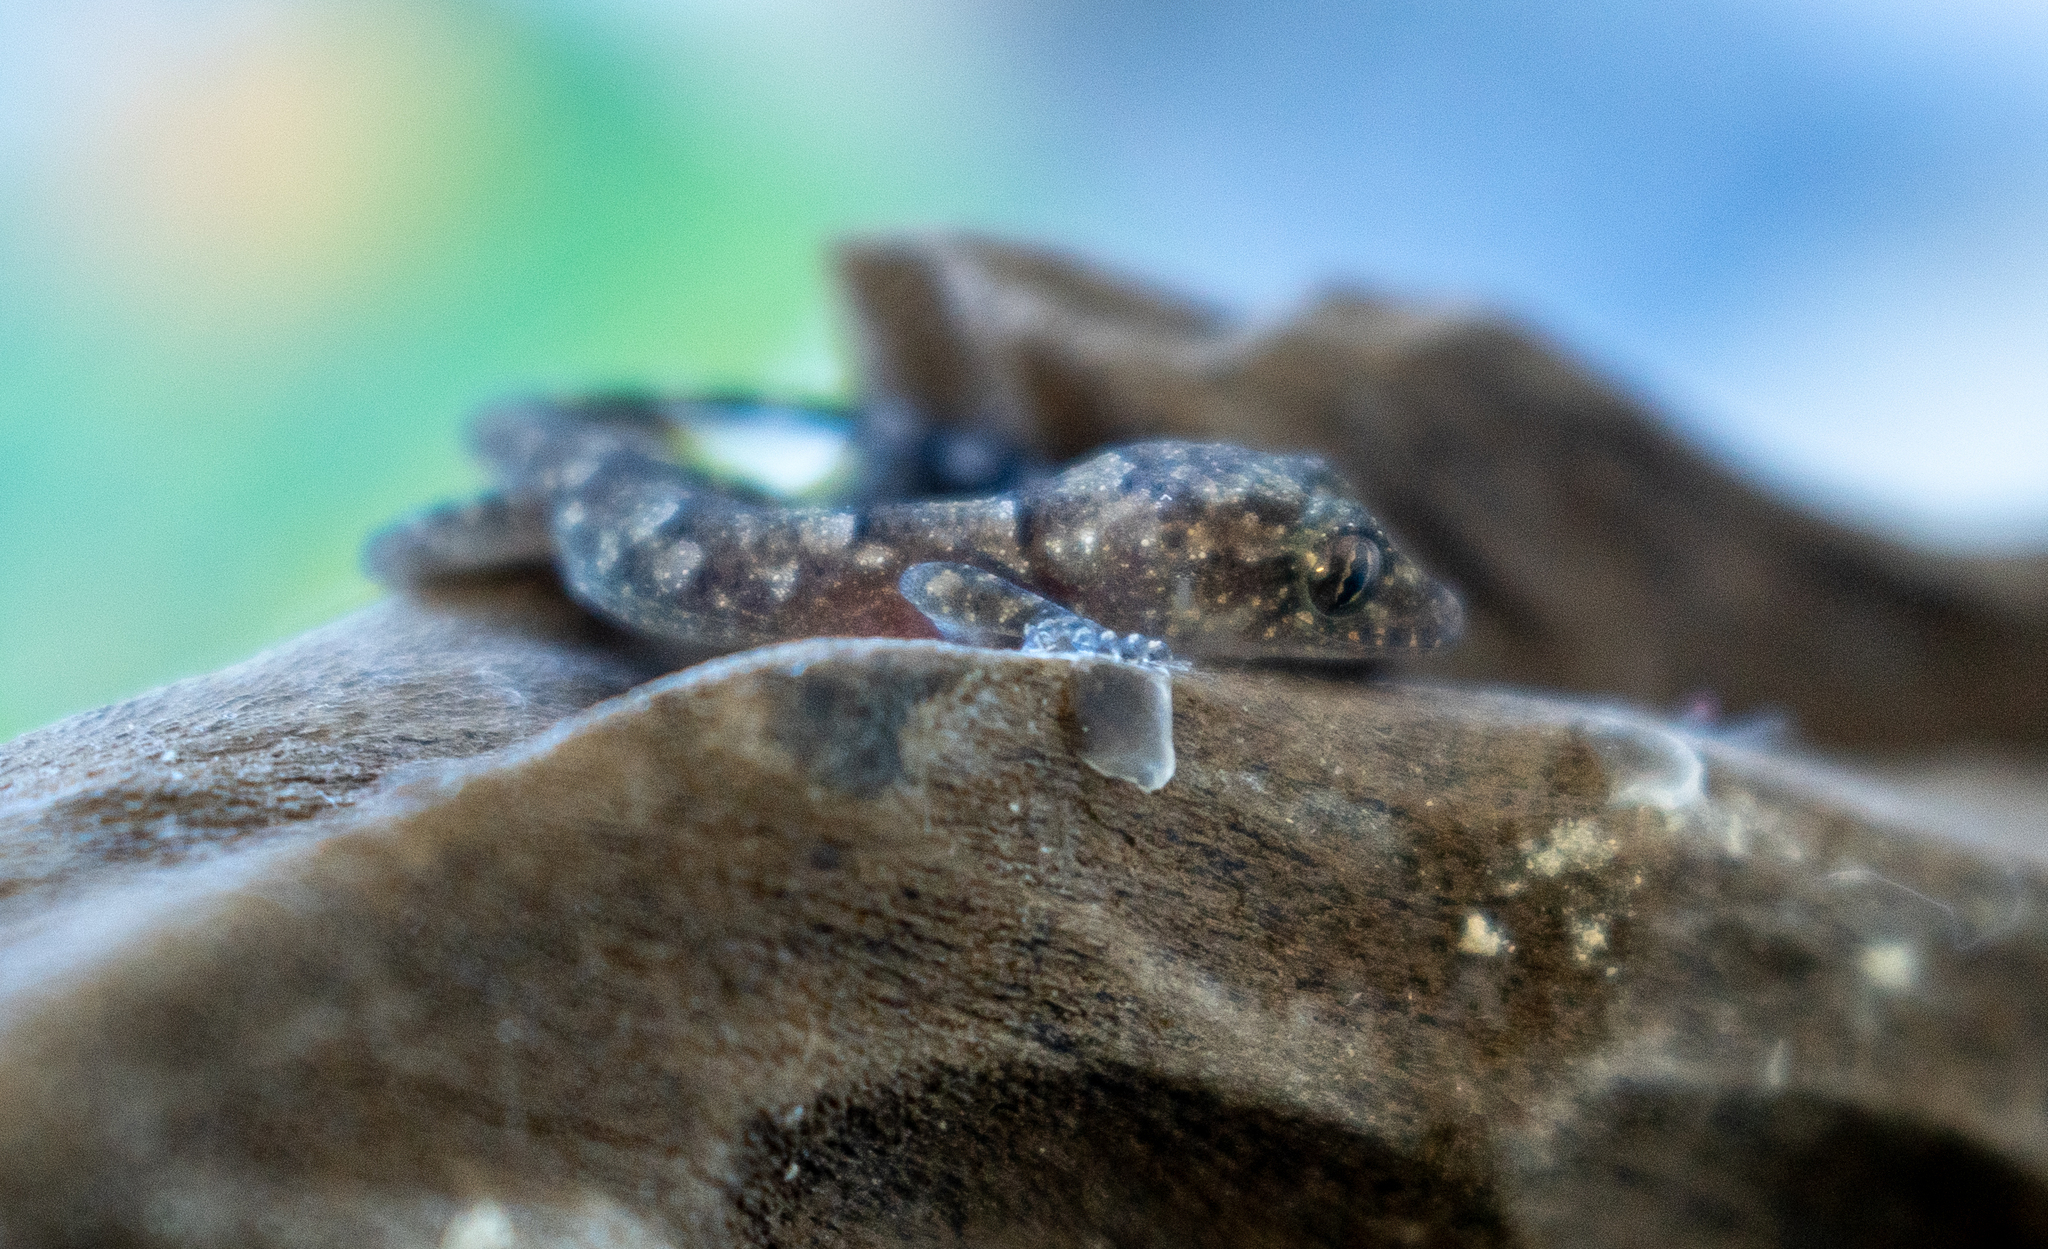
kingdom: Animalia
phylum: Chordata
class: Squamata
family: Gekkonidae
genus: Hemidactylus
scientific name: Hemidactylus mabouia
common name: House gecko
